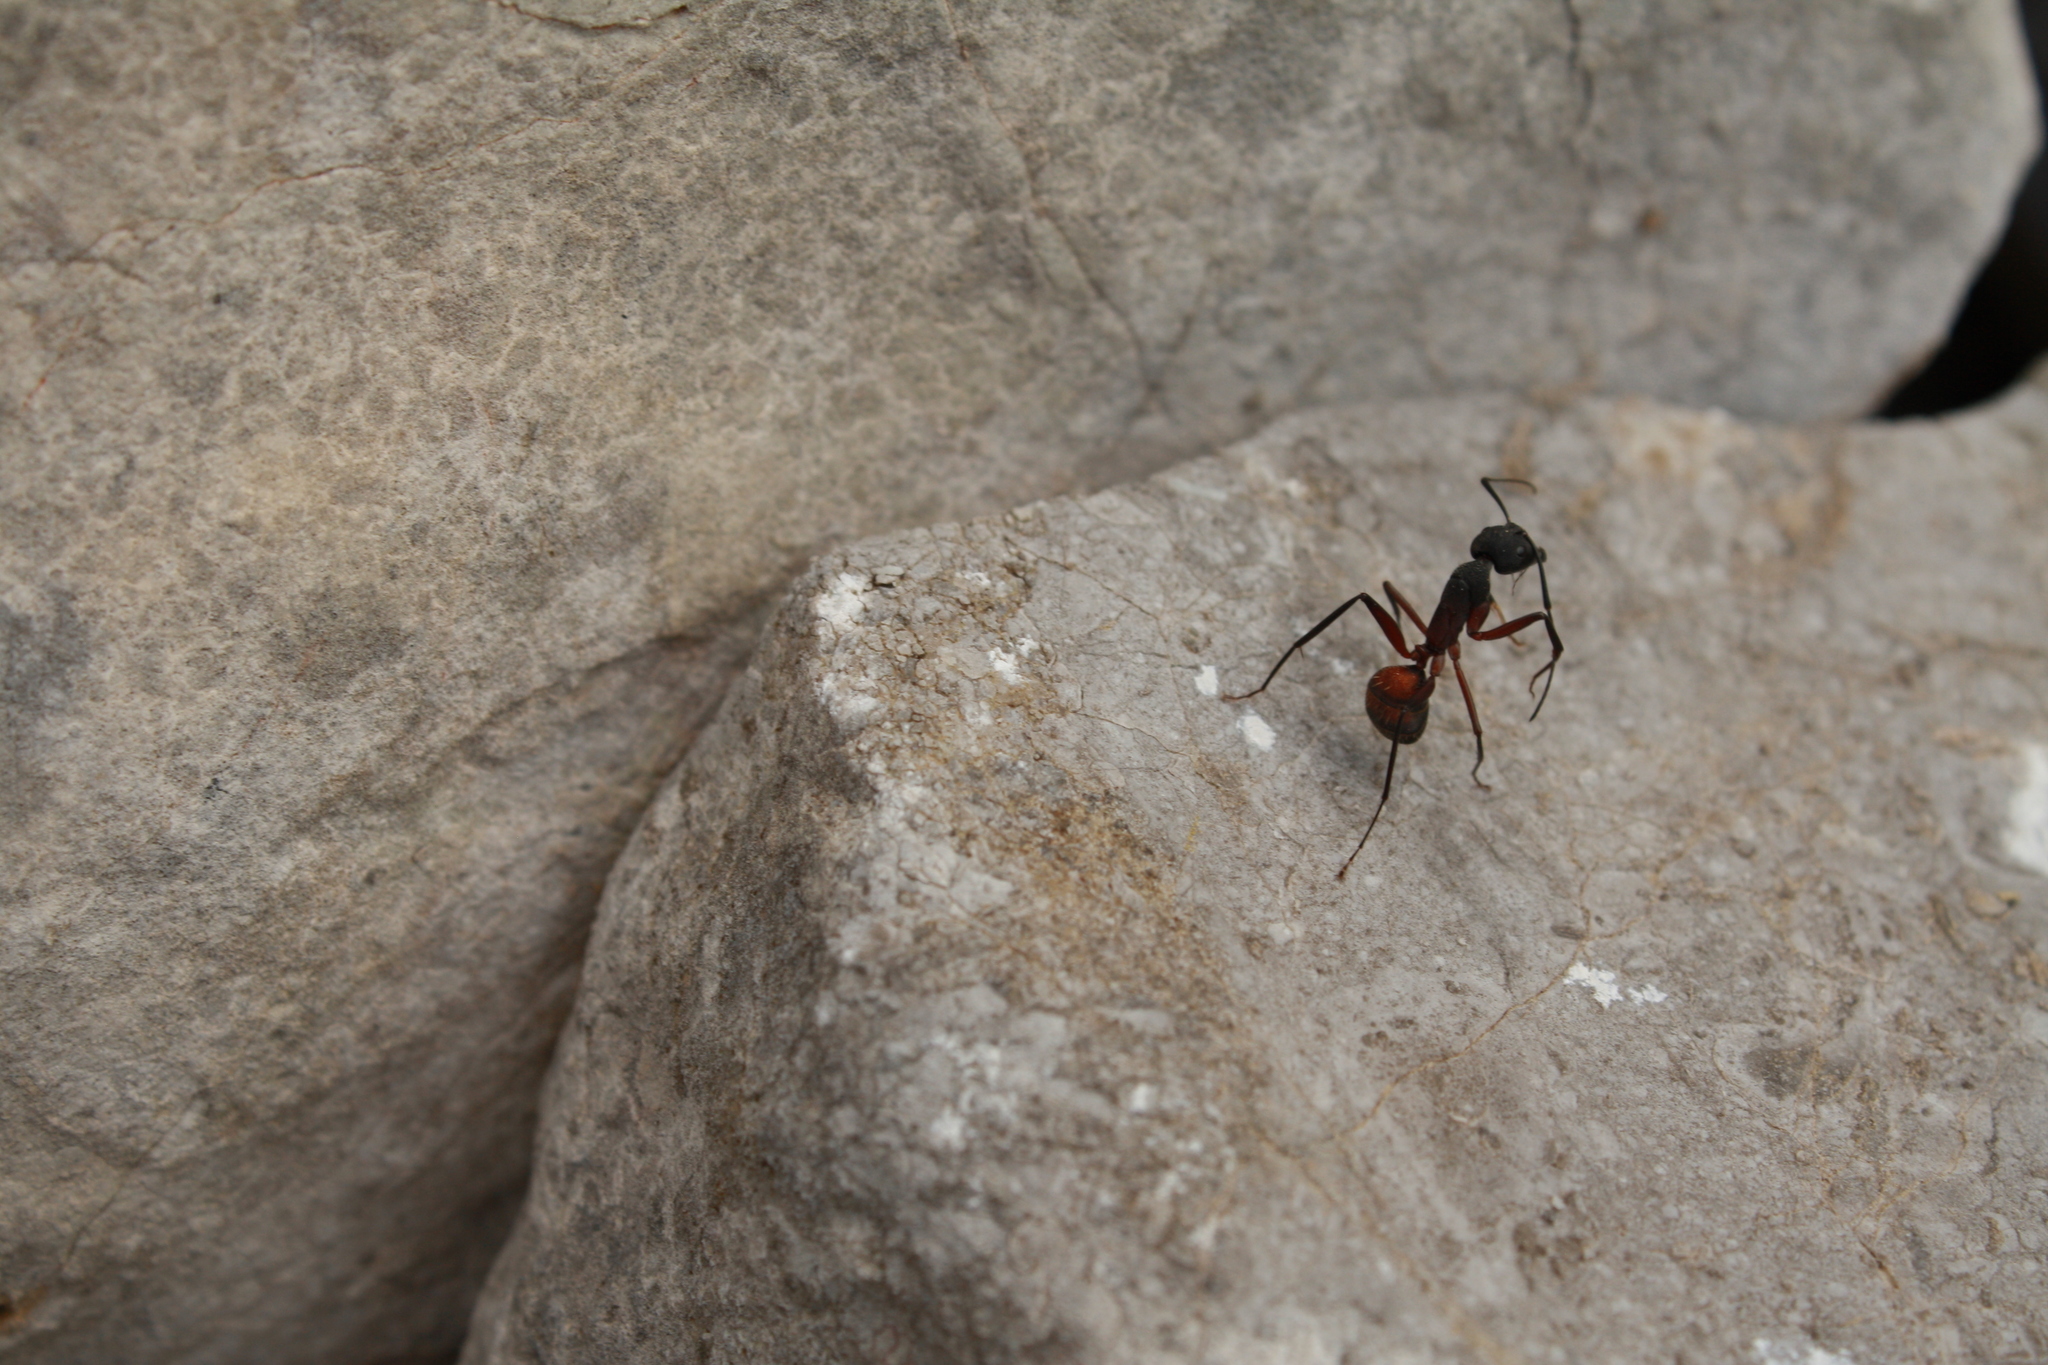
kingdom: Animalia
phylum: Arthropoda
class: Insecta
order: Hymenoptera
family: Formicidae
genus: Camponotus
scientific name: Camponotus cruentatus
